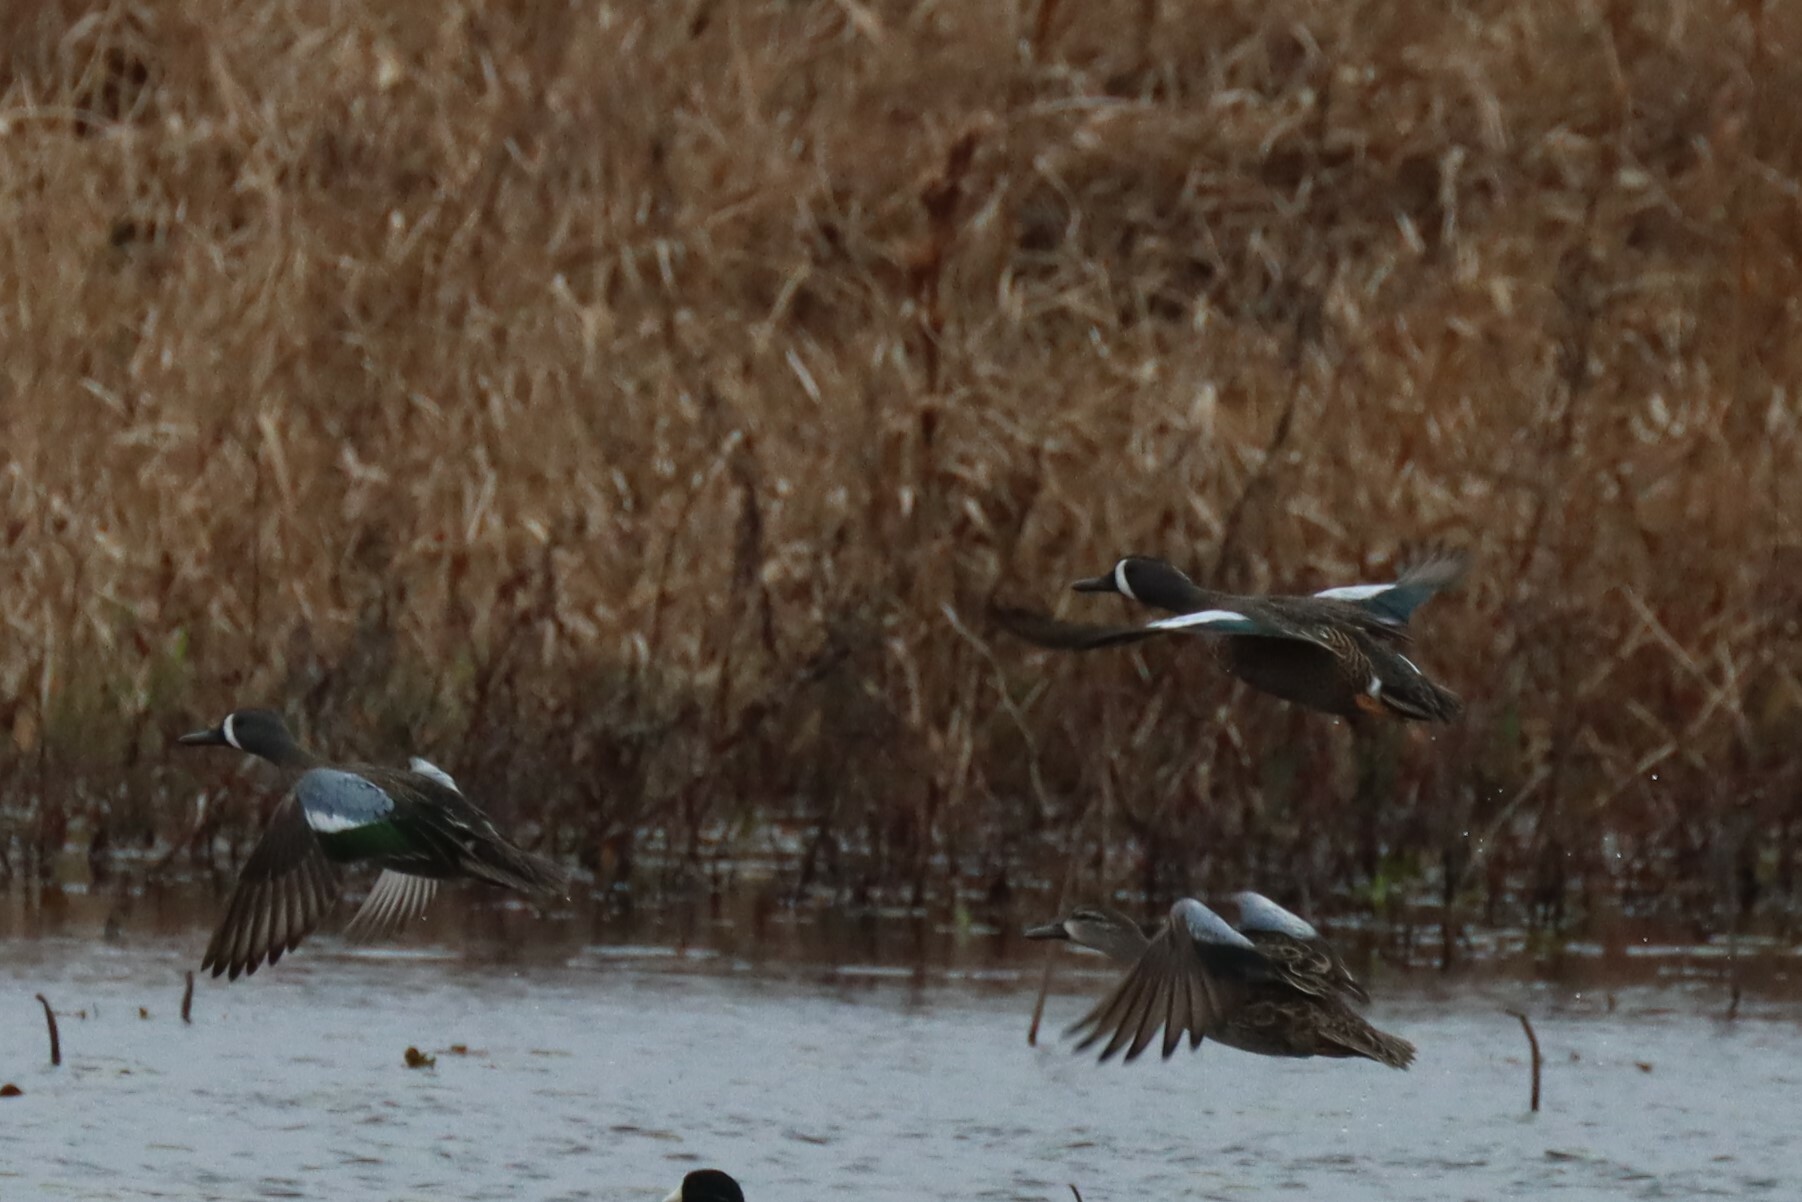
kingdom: Animalia
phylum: Chordata
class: Aves
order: Anseriformes
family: Anatidae
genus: Spatula
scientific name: Spatula discors
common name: Blue-winged teal
